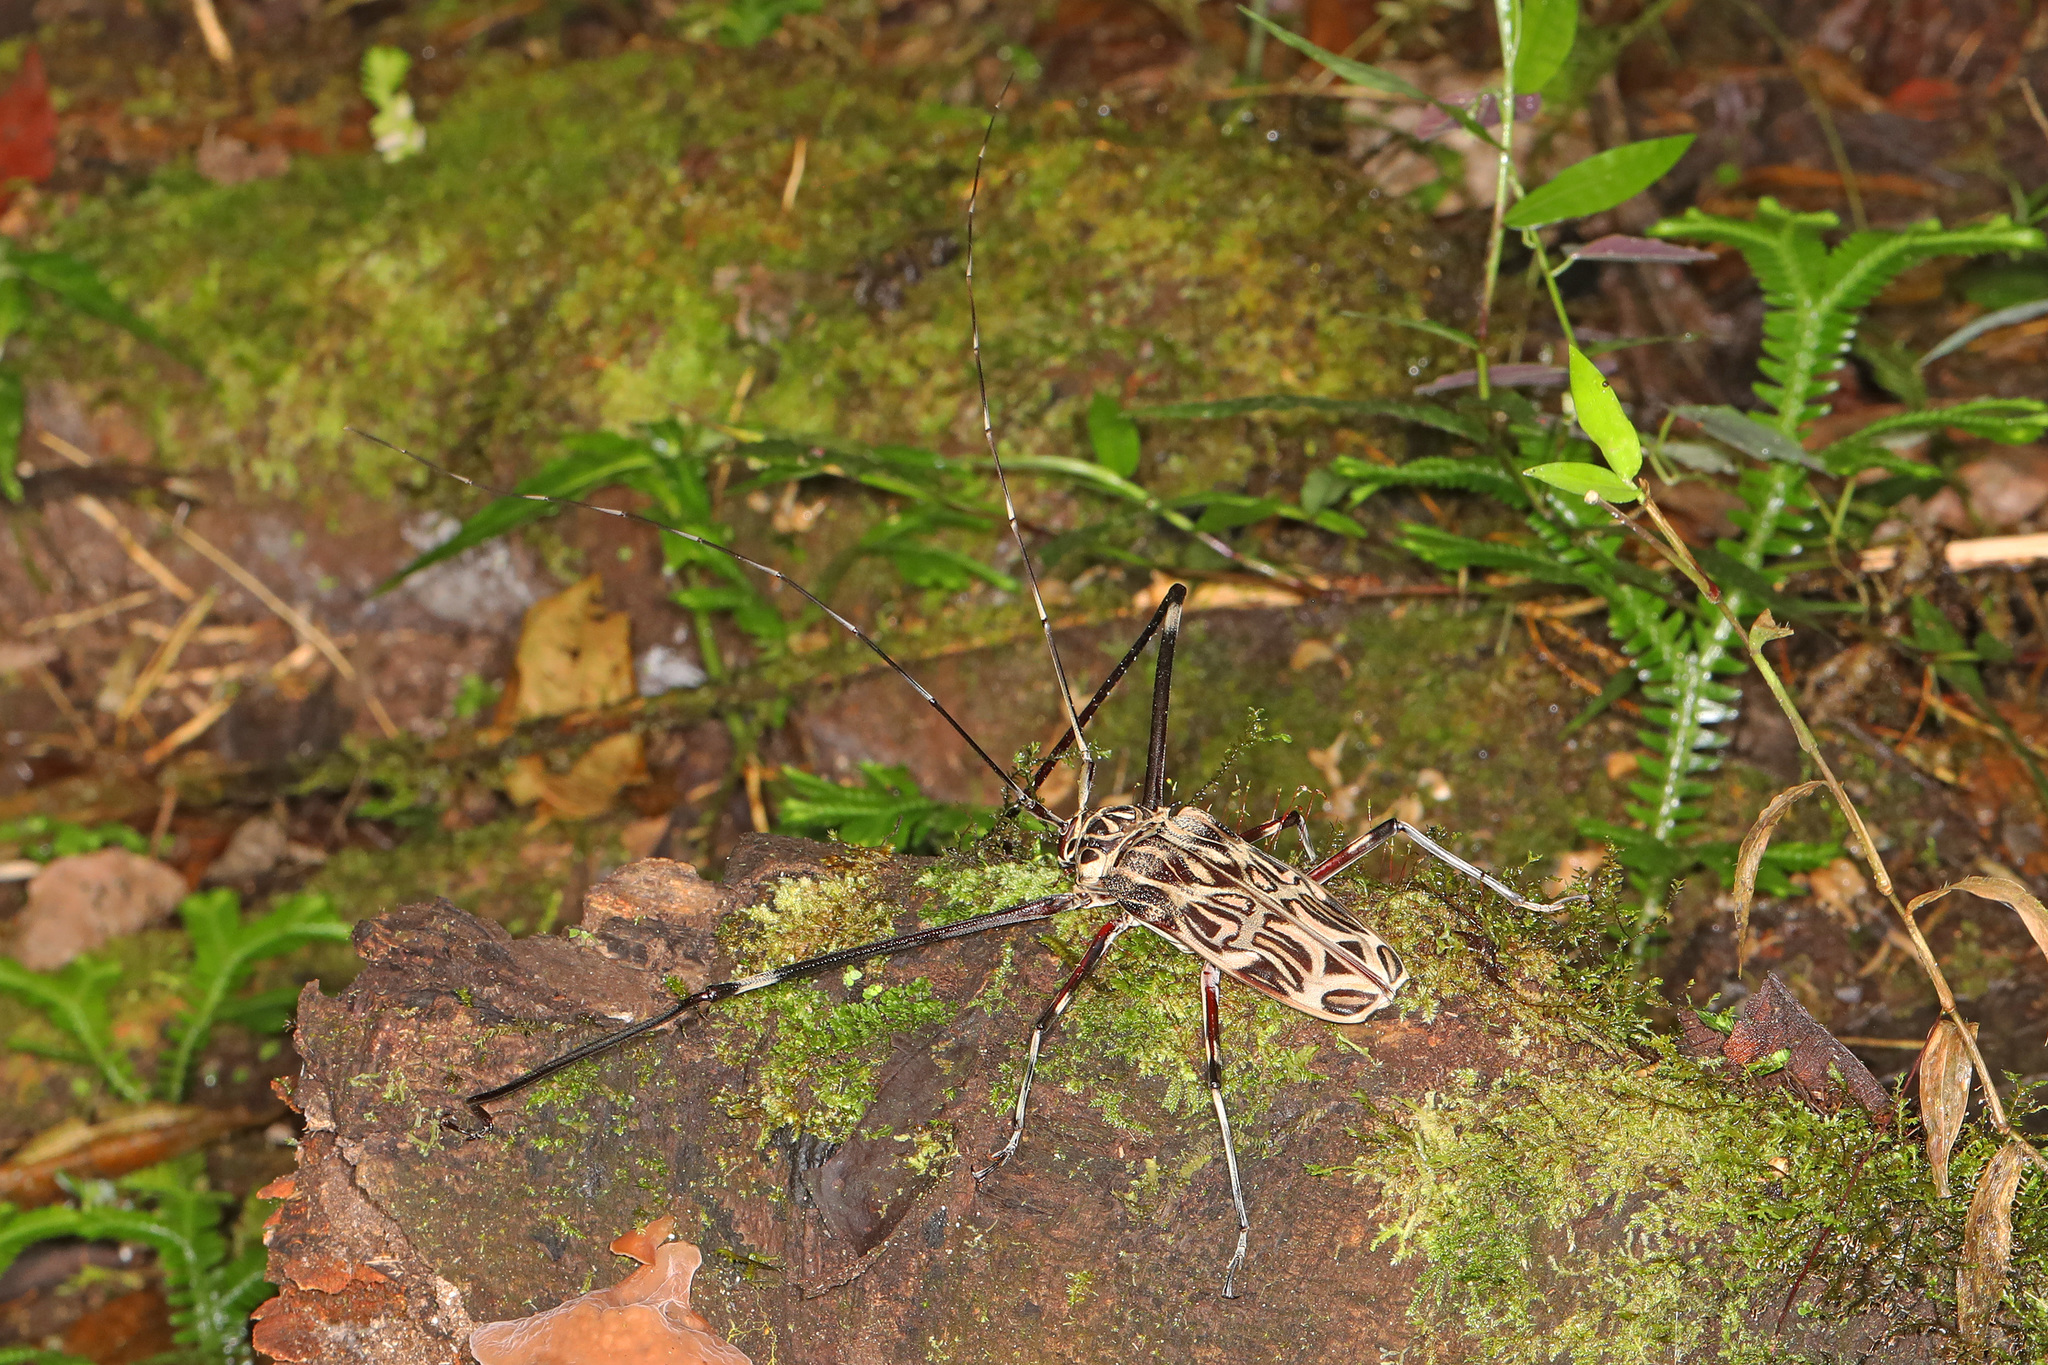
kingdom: Animalia
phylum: Arthropoda
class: Insecta
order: Coleoptera
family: Cerambycidae
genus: Acrocinus
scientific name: Acrocinus longimanus
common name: Arlequin
